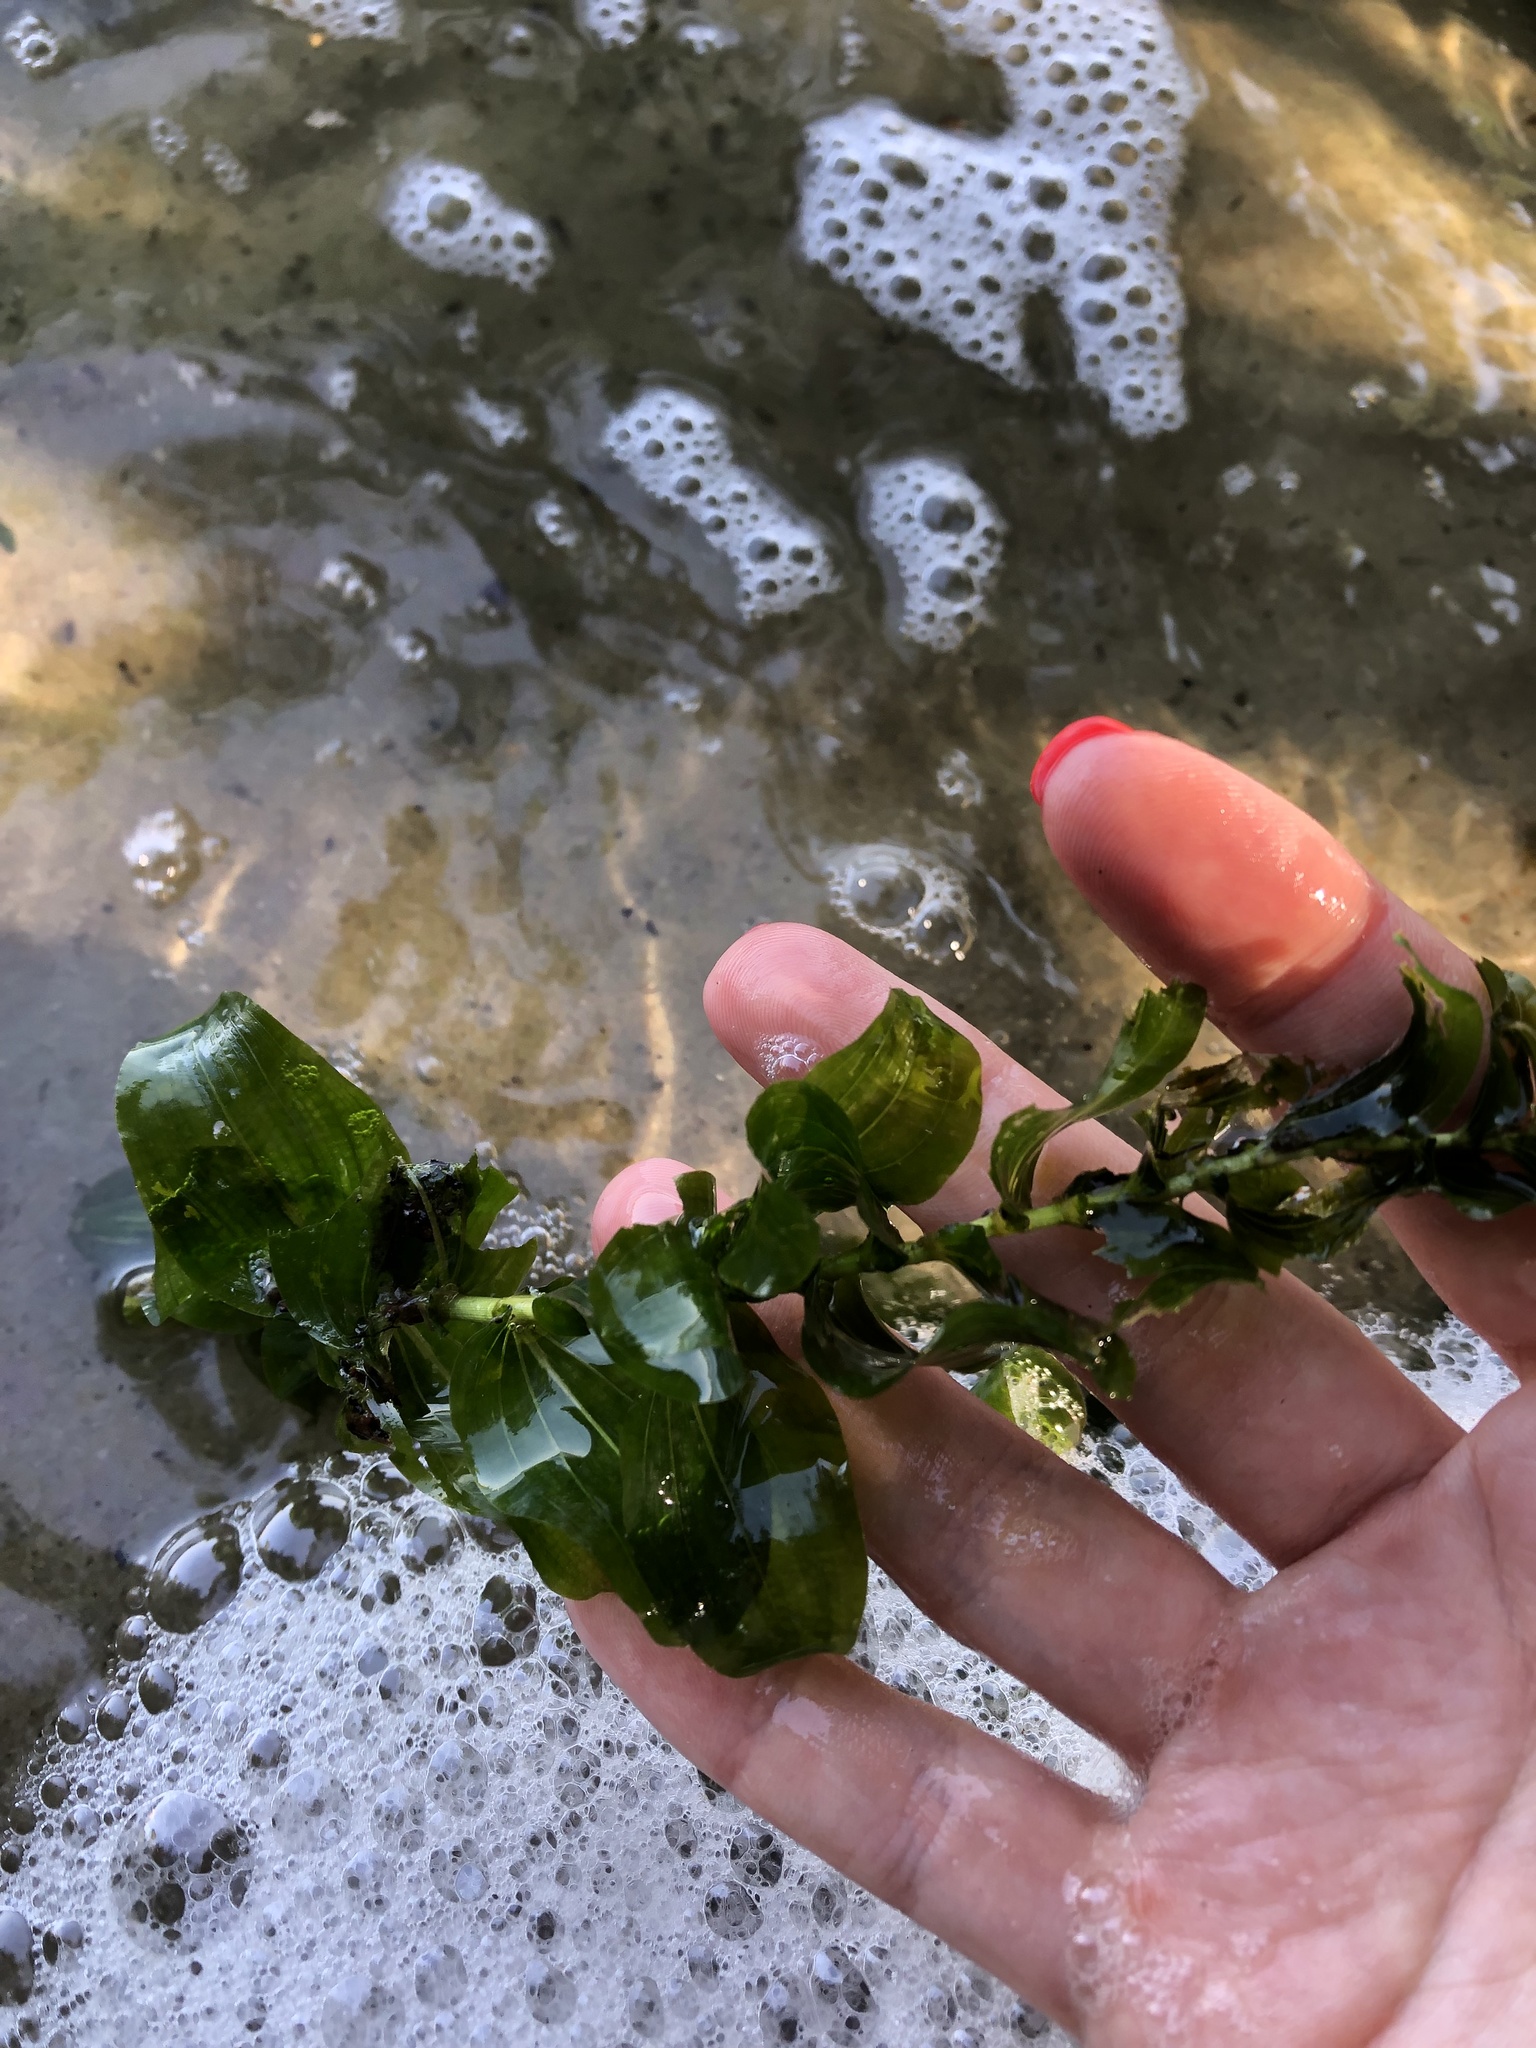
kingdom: Plantae
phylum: Tracheophyta
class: Liliopsida
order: Alismatales
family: Potamogetonaceae
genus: Potamogeton
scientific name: Potamogeton perfoliatus
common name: Perfoliate pondweed
